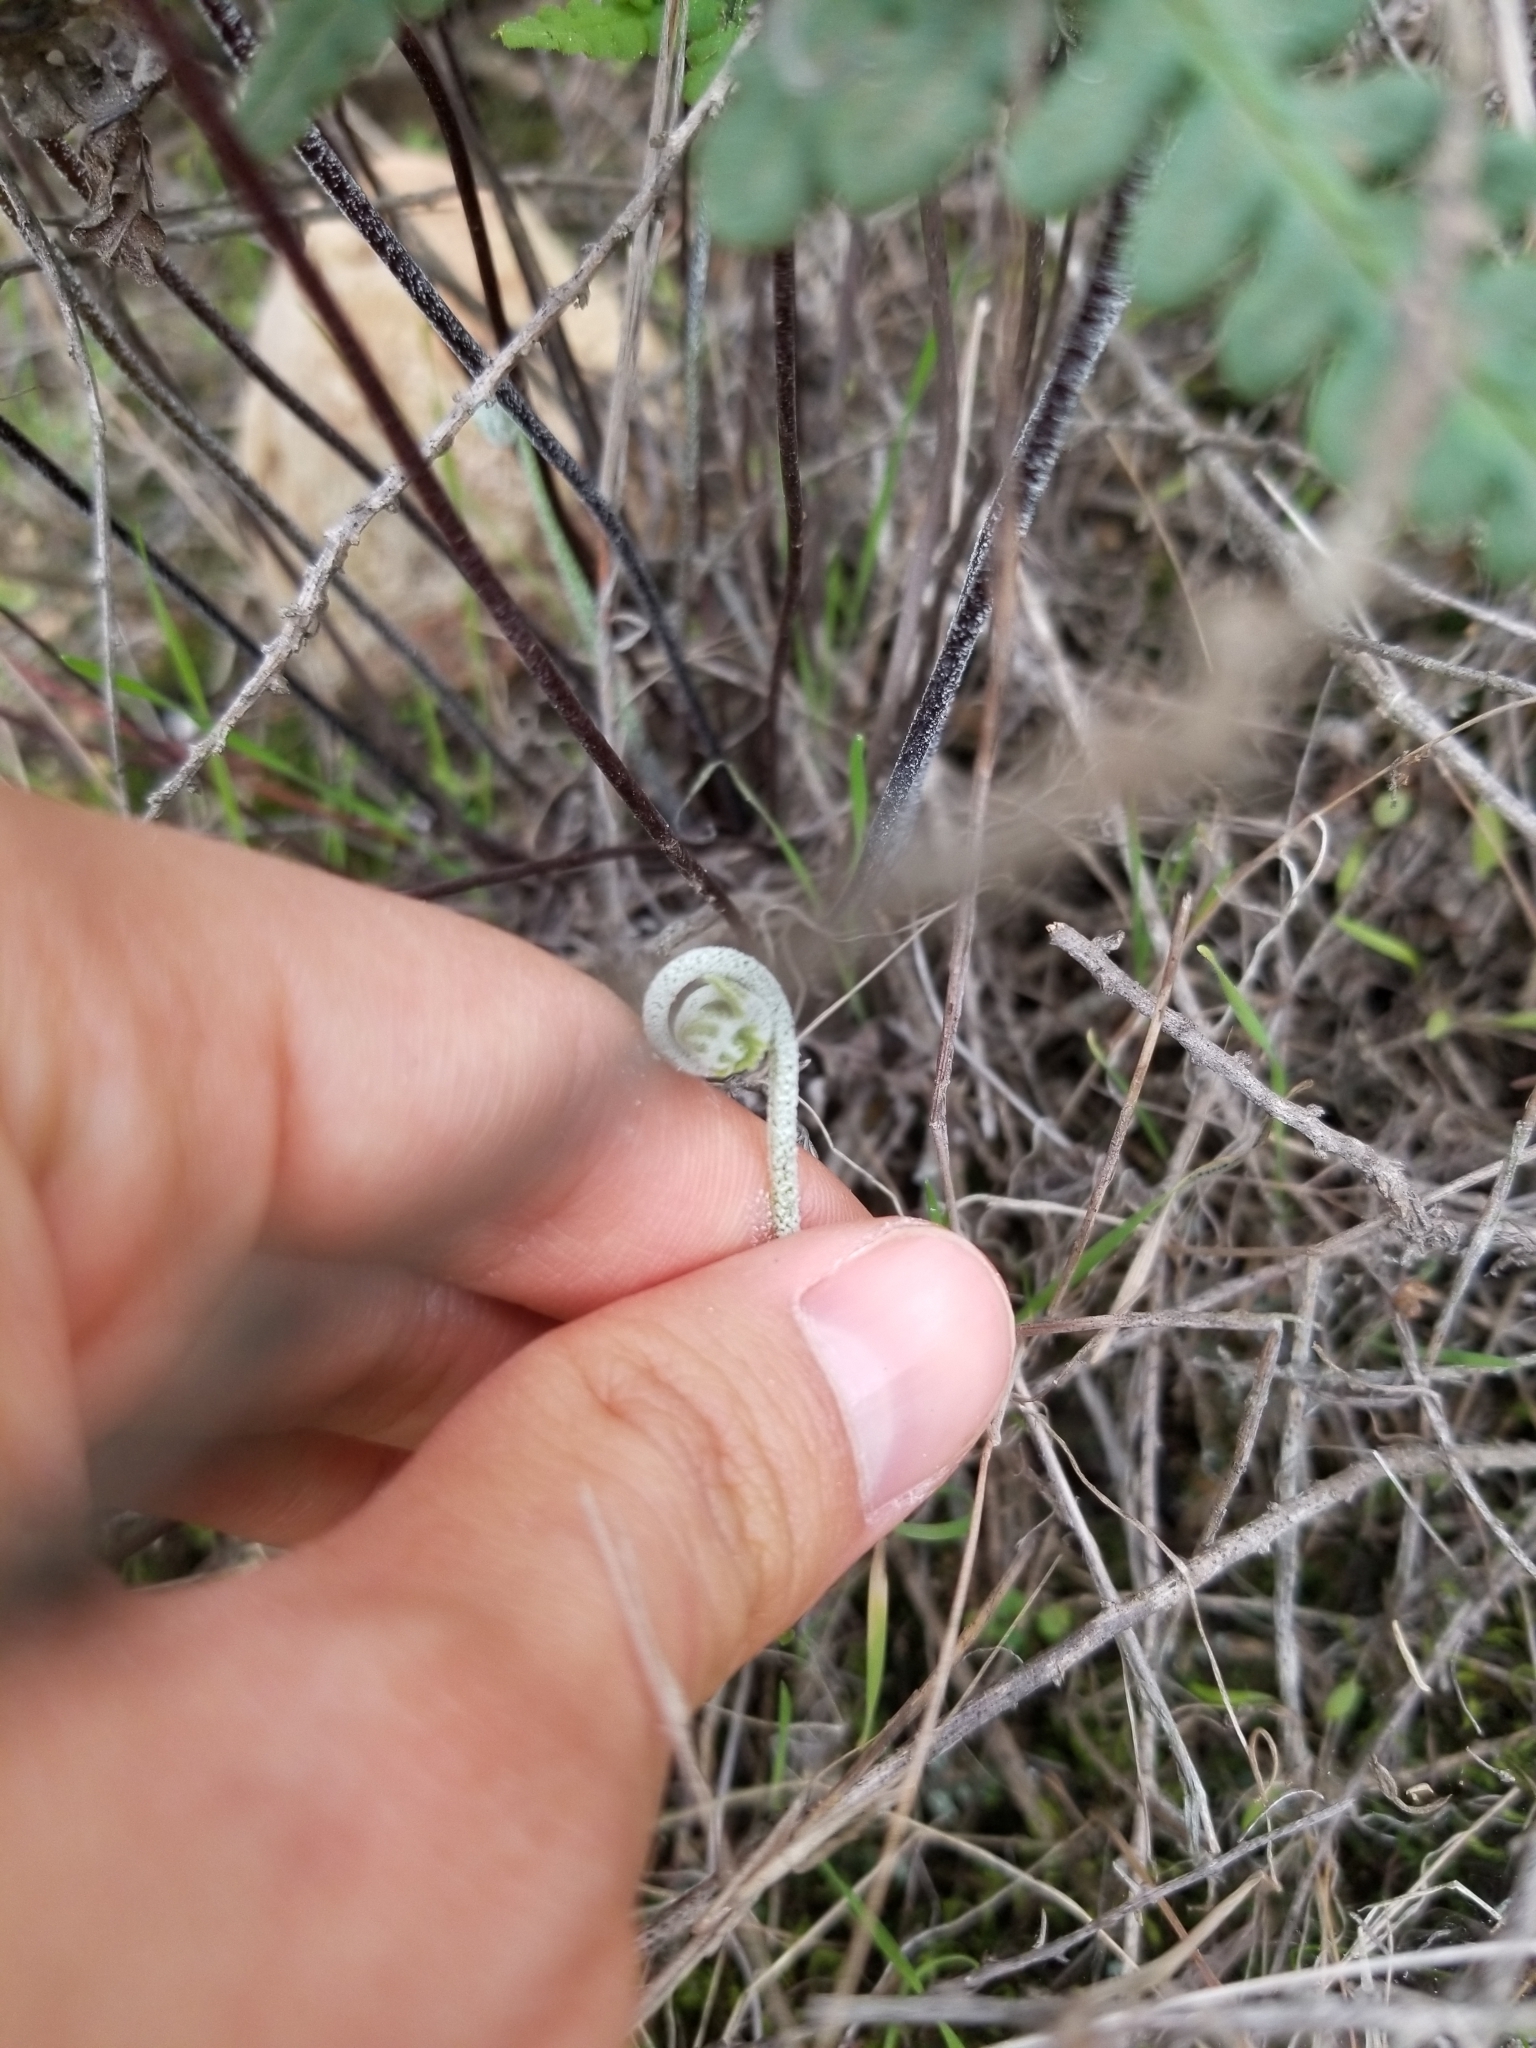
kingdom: Plantae
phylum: Tracheophyta
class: Polypodiopsida
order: Polypodiales
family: Pteridaceae
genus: Pentagramma
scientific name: Pentagramma glanduloviscida
